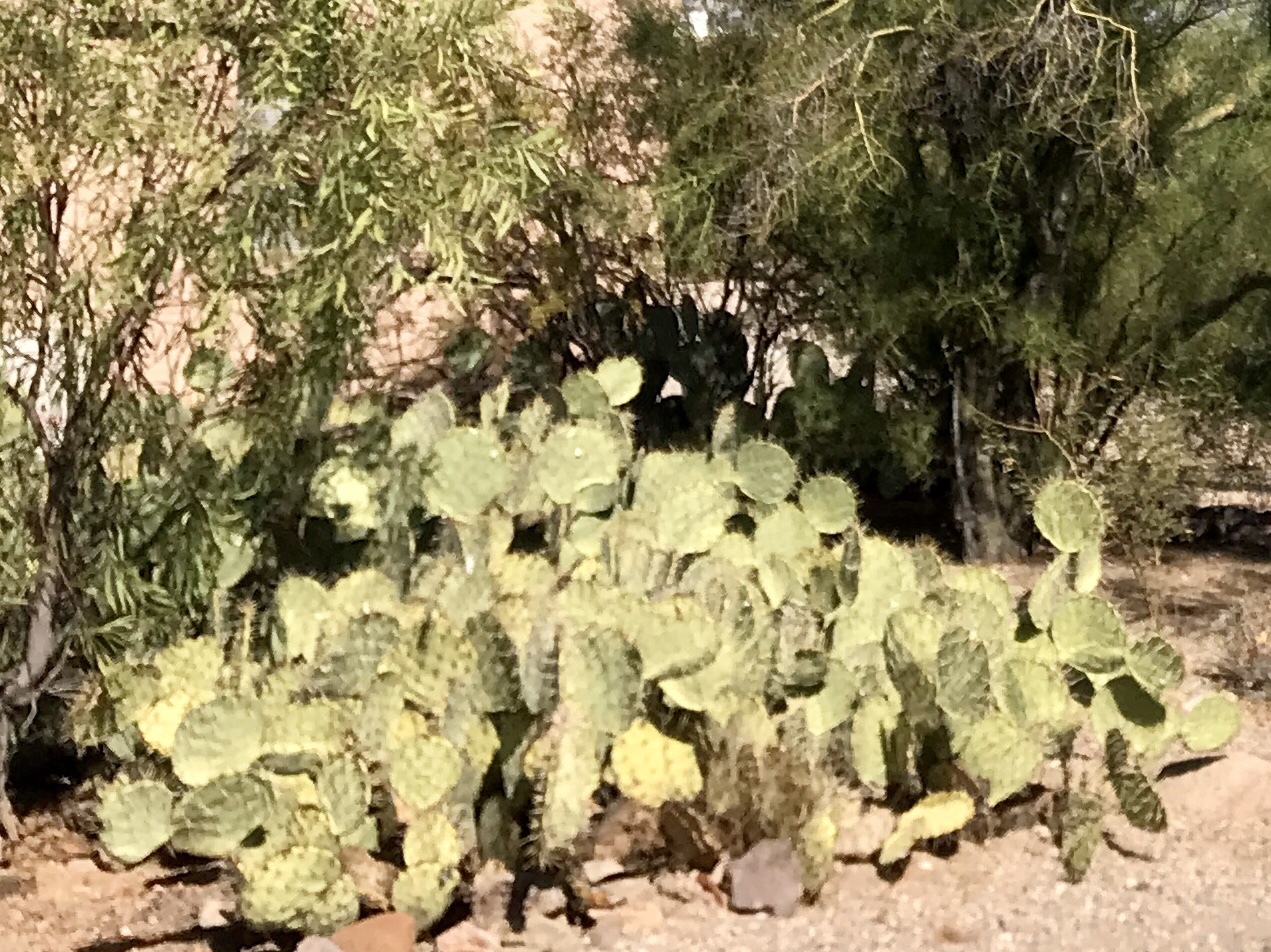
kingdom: Plantae
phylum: Tracheophyta
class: Magnoliopsida
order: Caryophyllales
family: Cactaceae
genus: Opuntia
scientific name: Opuntia engelmannii
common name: Cactus-apple
